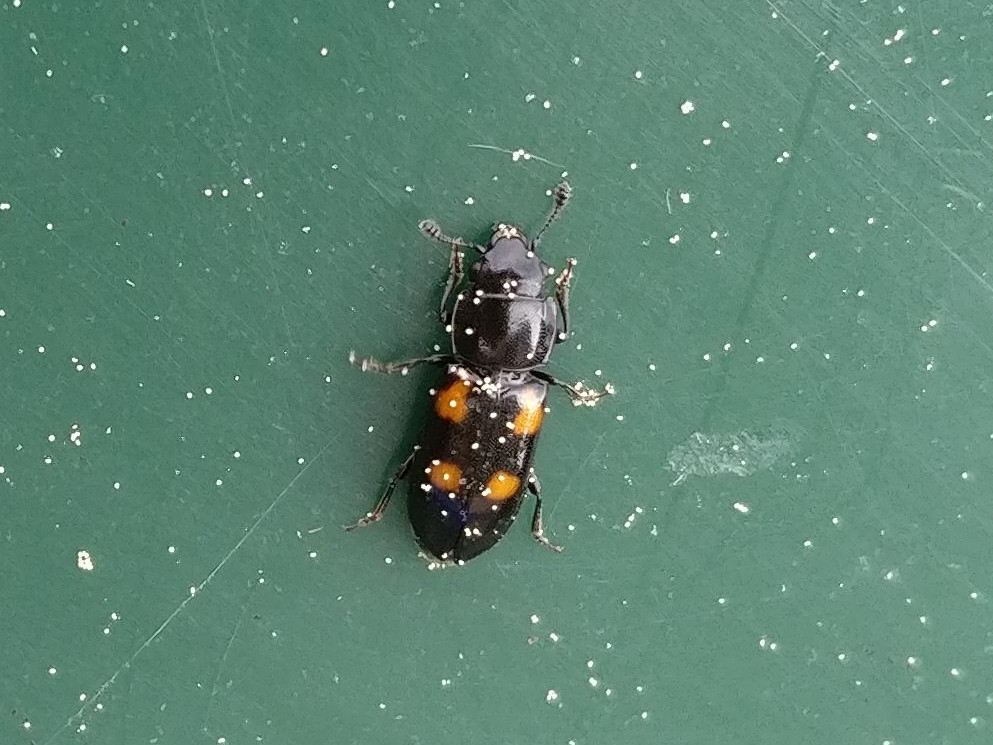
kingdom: Animalia
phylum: Arthropoda
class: Insecta
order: Coleoptera
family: Nitidulidae
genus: Glischrochilus
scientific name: Glischrochilus quadripunctatus
